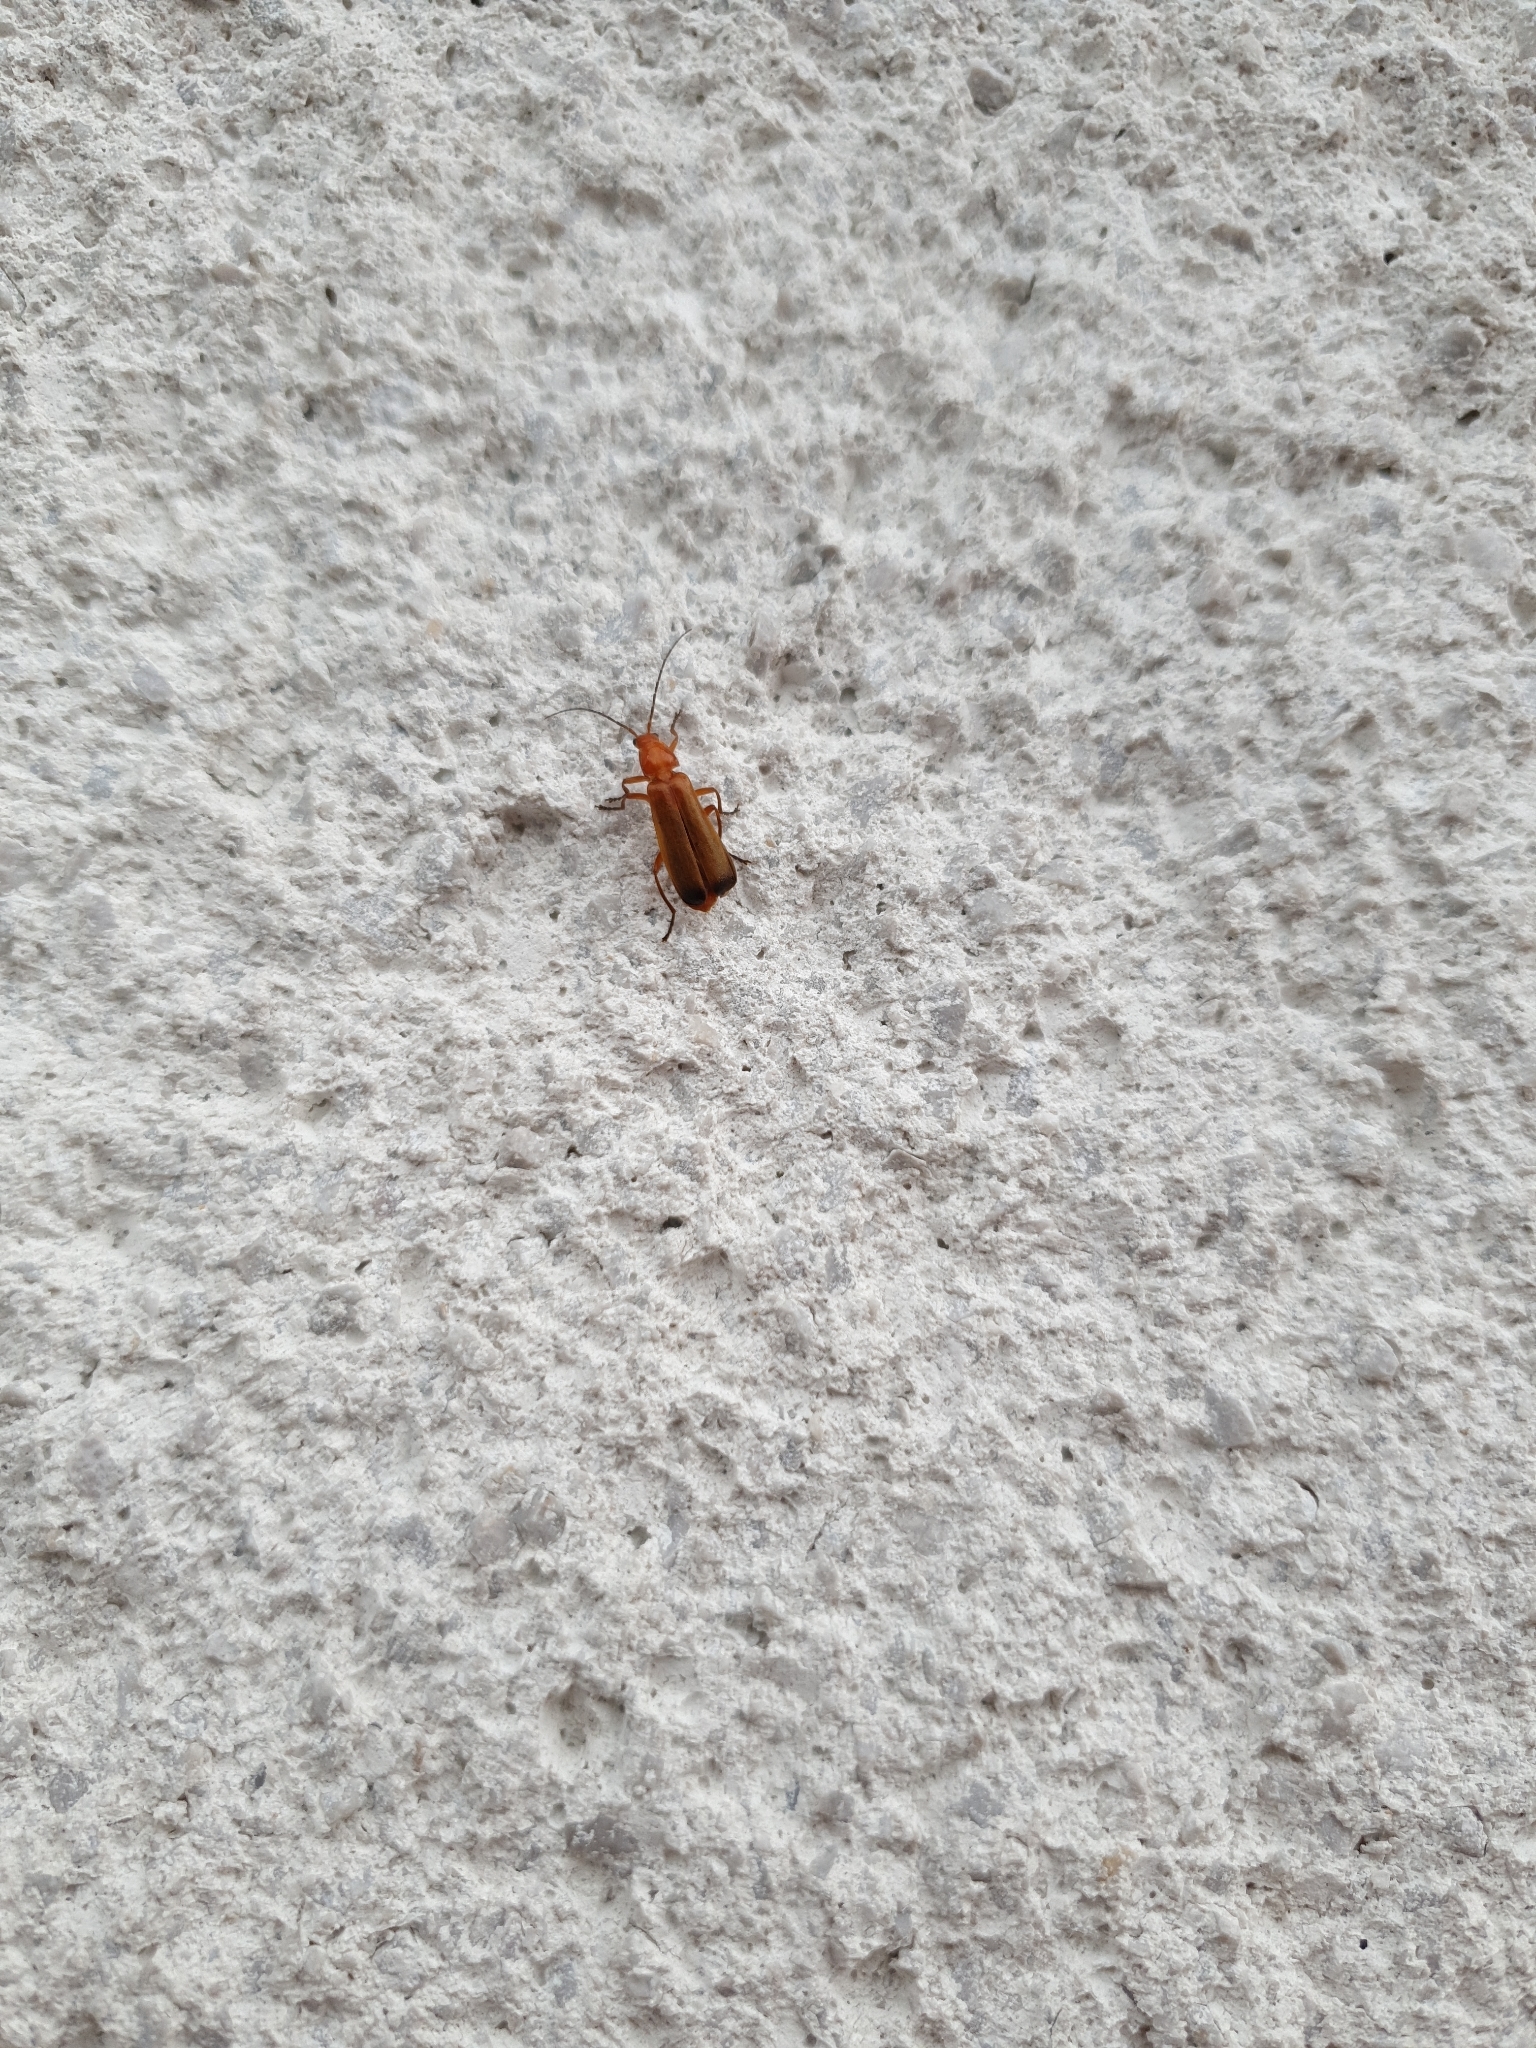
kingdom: Animalia
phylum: Arthropoda
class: Insecta
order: Coleoptera
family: Cantharidae
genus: Rhagonycha
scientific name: Rhagonycha fulva
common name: Common red soldier beetle
